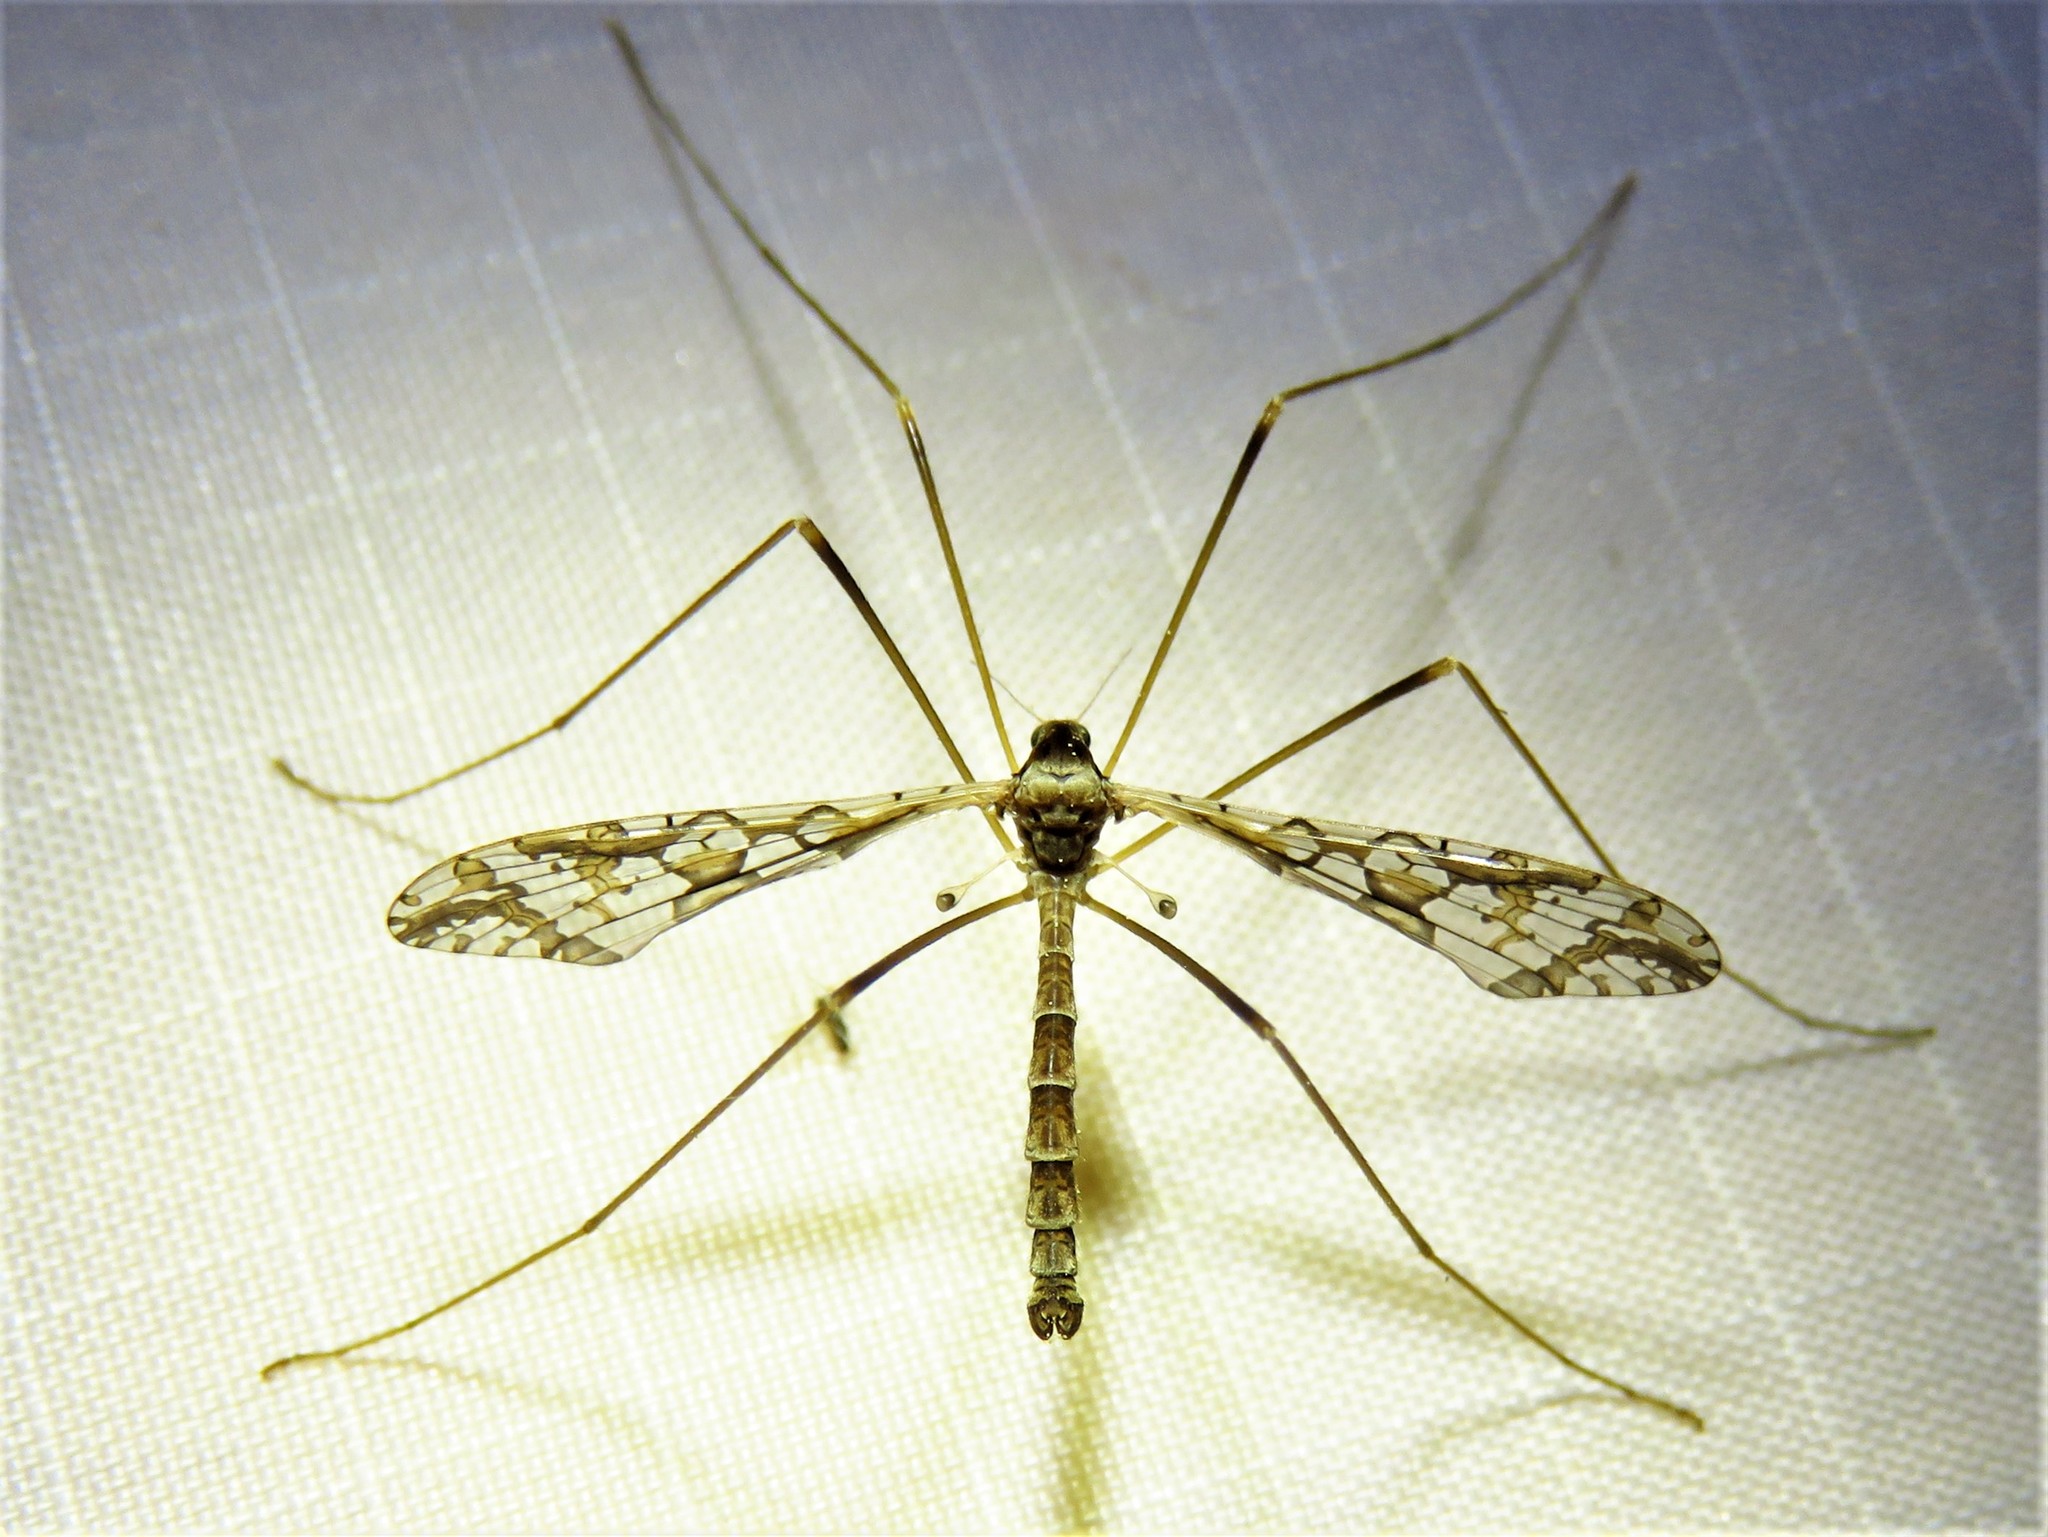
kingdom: Animalia
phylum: Arthropoda
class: Insecta
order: Diptera
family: Limoniidae
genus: Epiphragma
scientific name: Epiphragma solatrix
